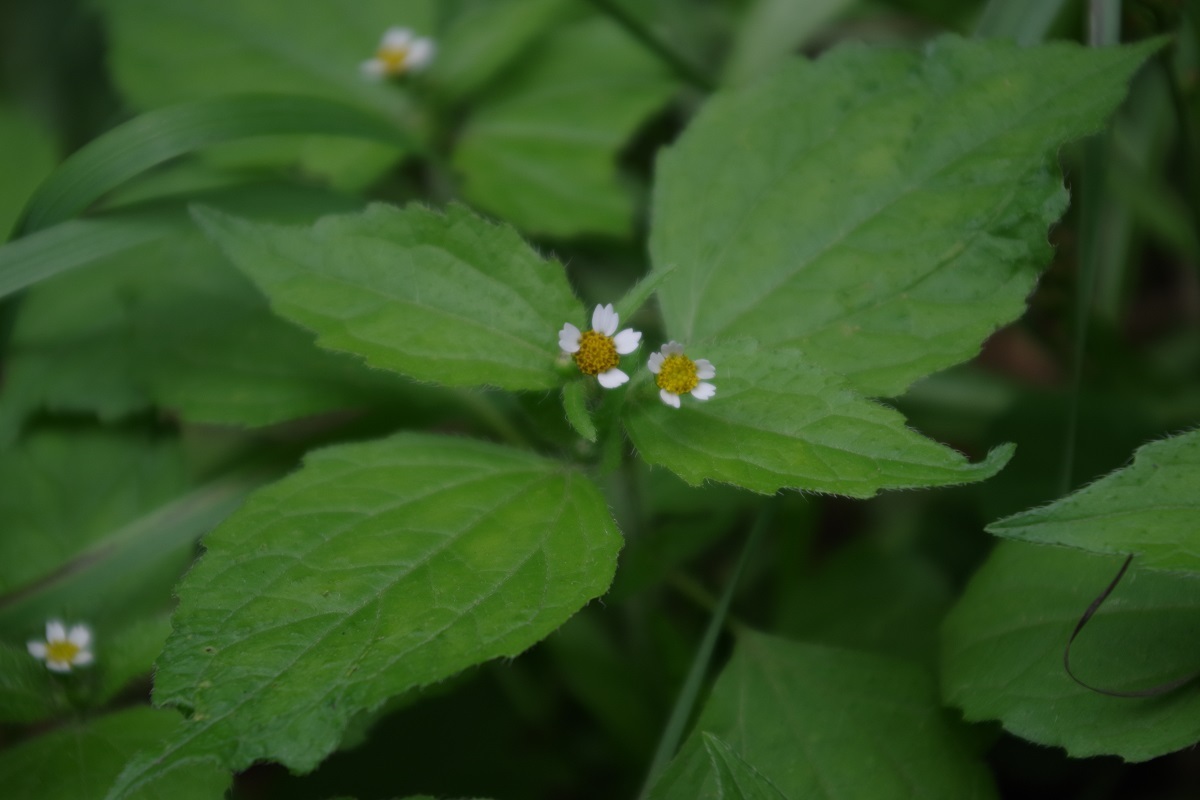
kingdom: Plantae
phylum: Tracheophyta
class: Magnoliopsida
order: Asterales
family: Asteraceae
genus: Galinsoga
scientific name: Galinsoga quadriradiata
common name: Shaggy soldier
